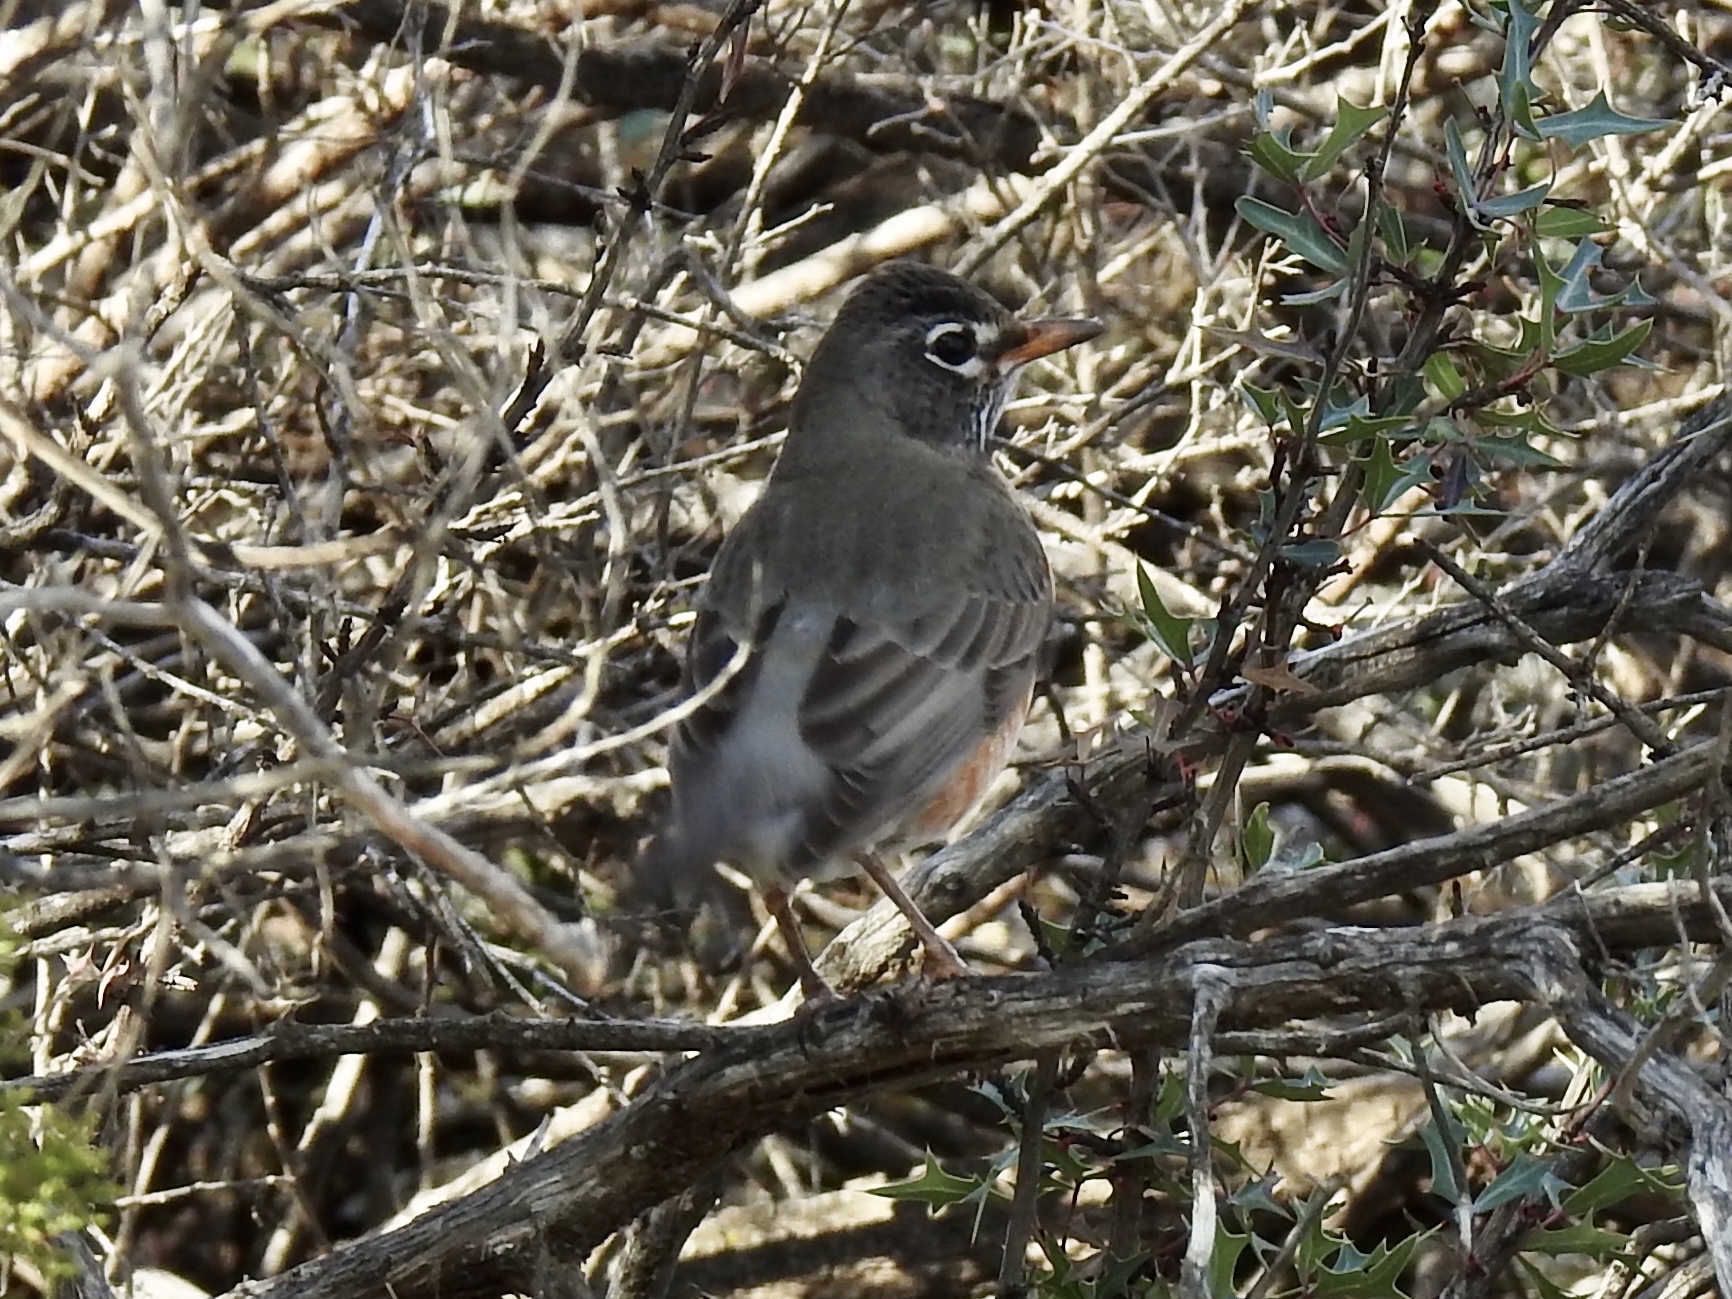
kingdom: Animalia
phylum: Chordata
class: Aves
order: Passeriformes
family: Turdidae
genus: Turdus
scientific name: Turdus migratorius
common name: American robin
